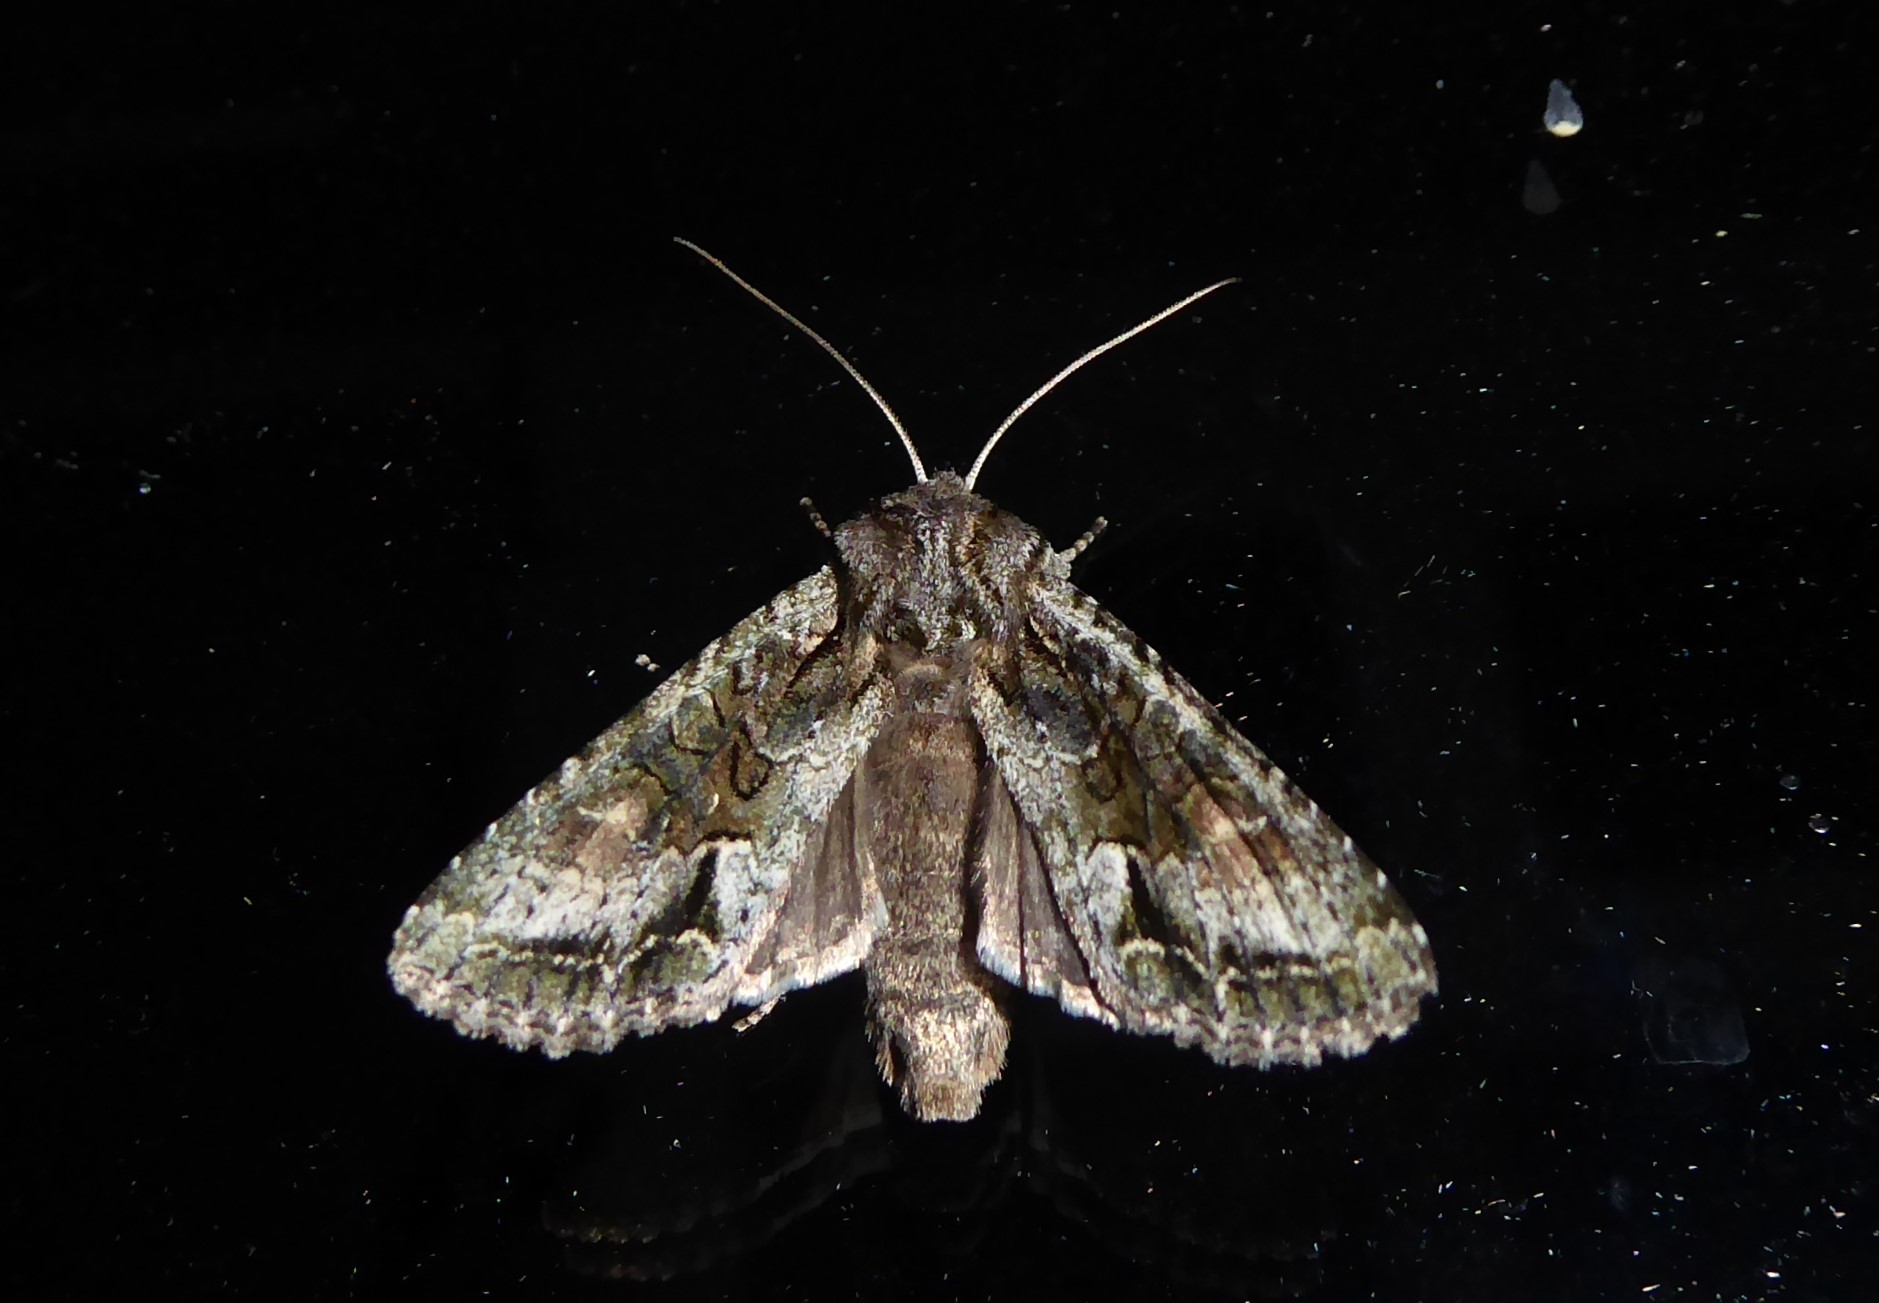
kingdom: Animalia
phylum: Arthropoda
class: Insecta
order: Lepidoptera
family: Noctuidae
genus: Ichneutica
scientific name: Ichneutica mutans
